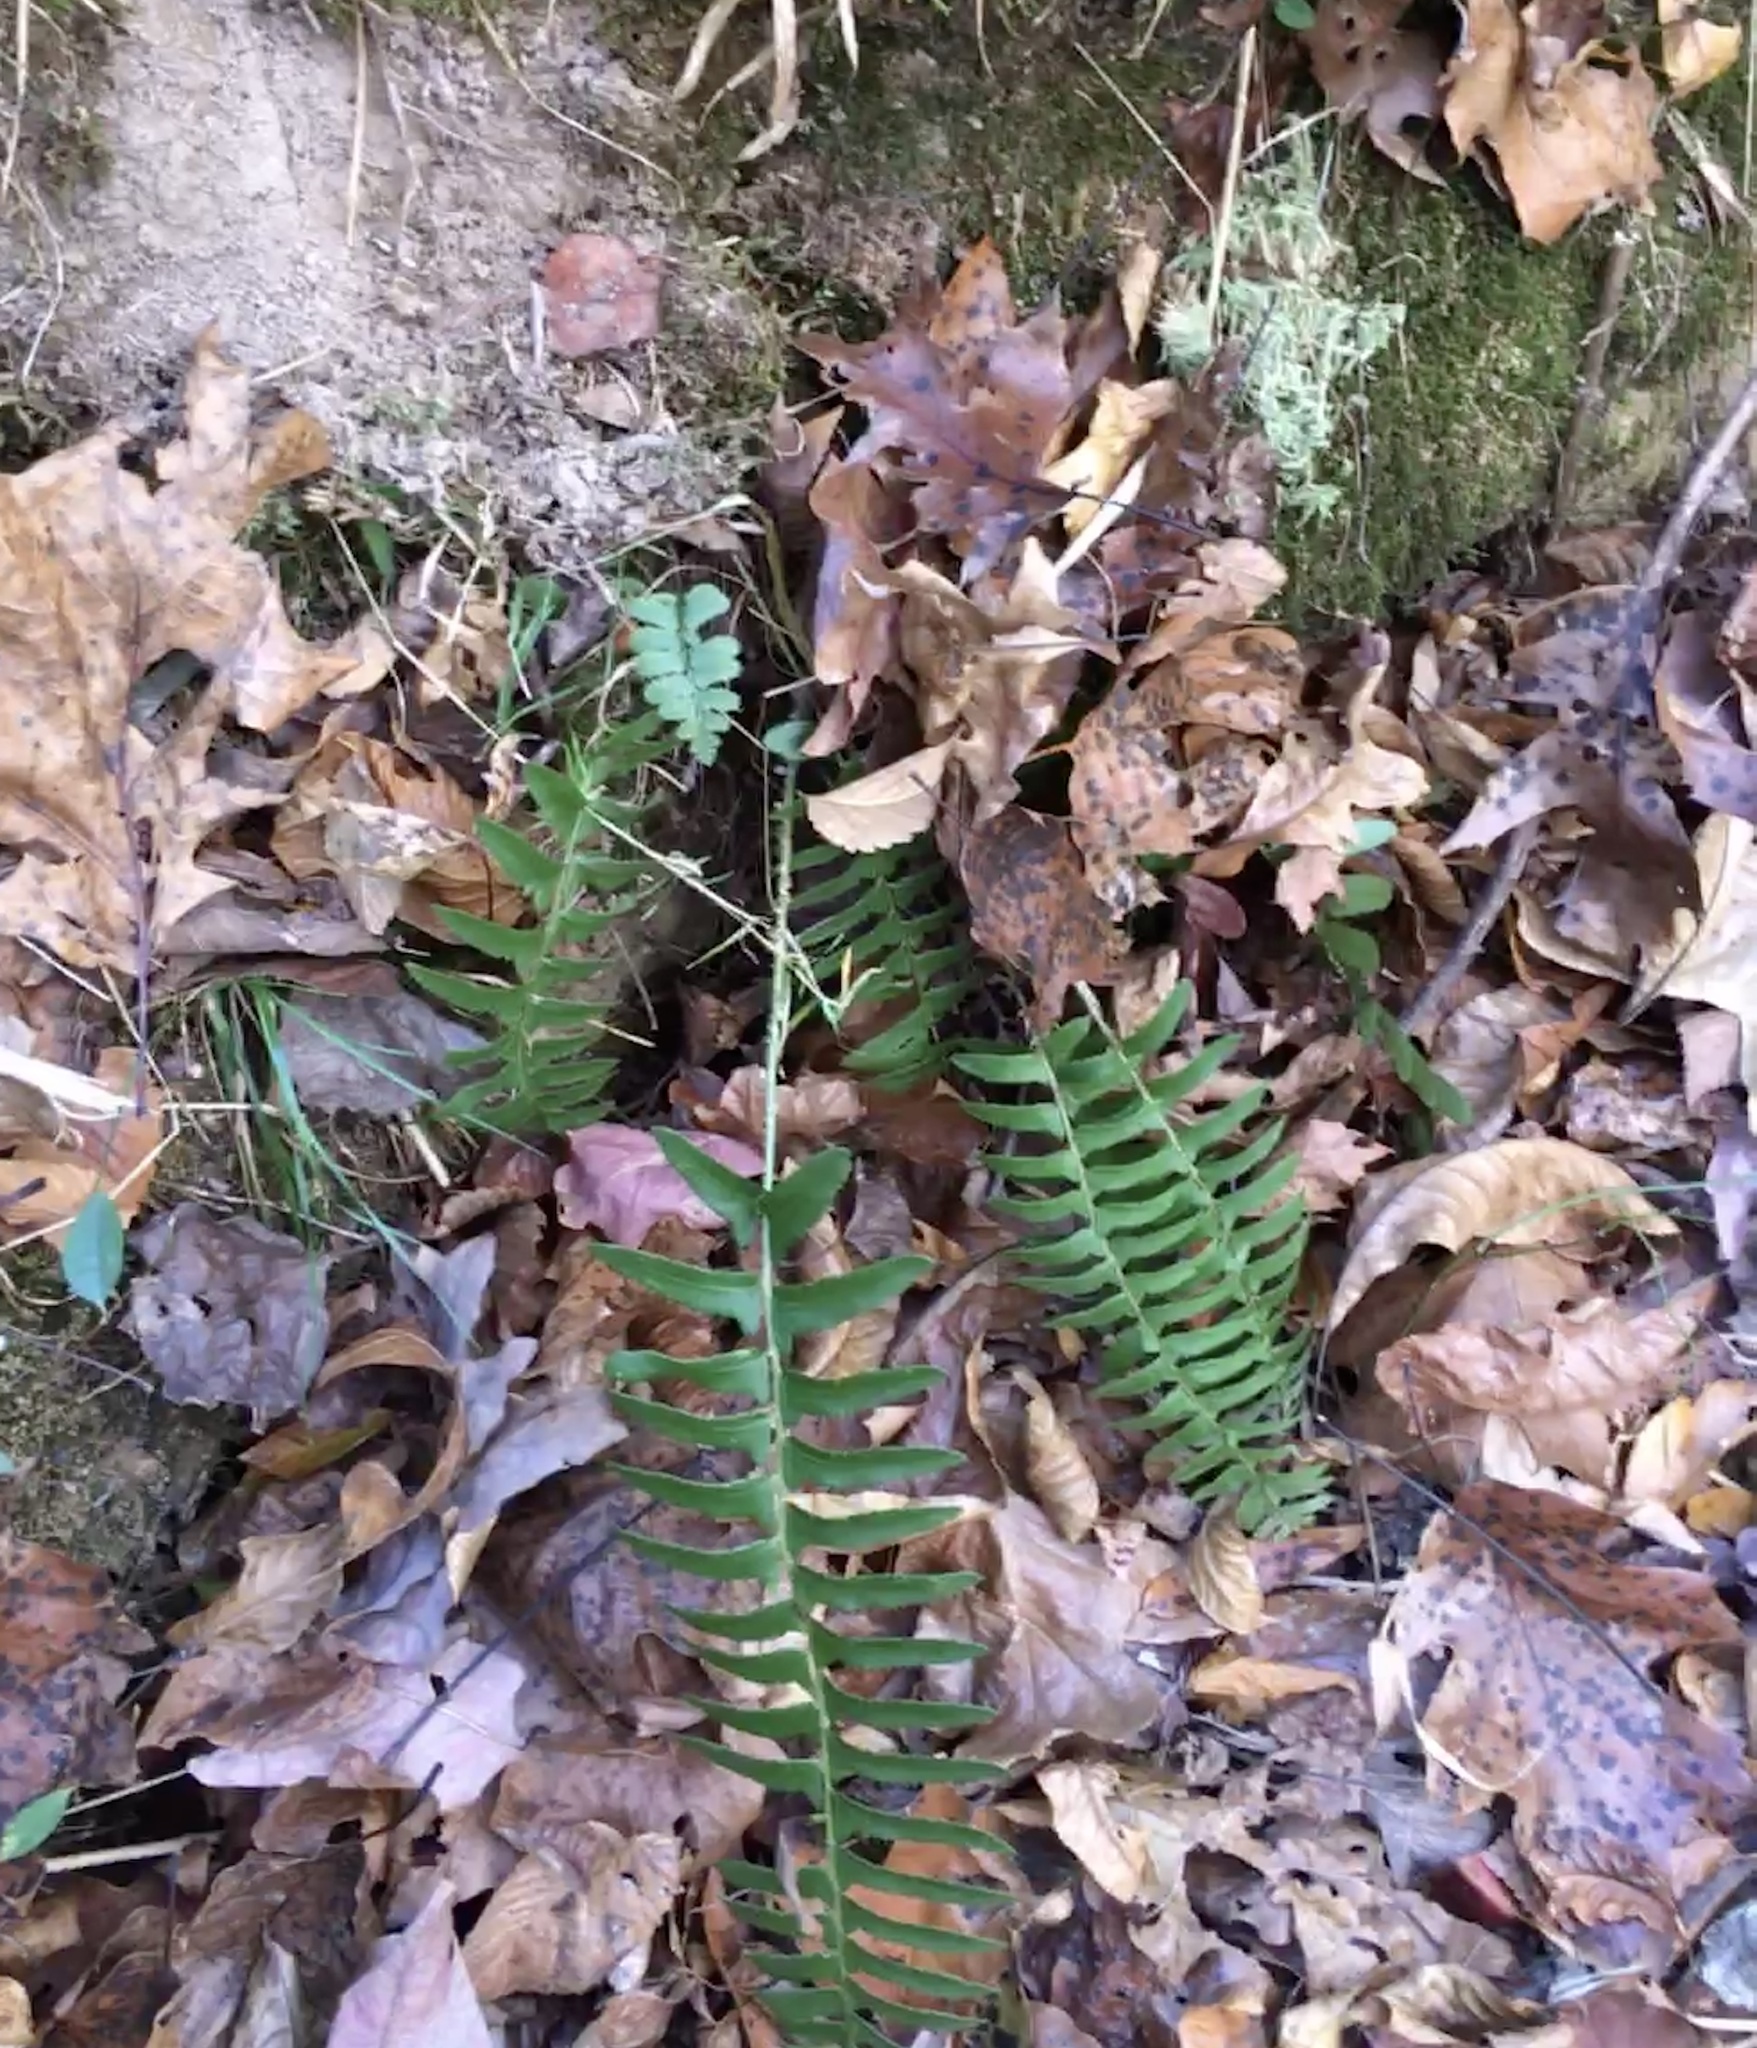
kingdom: Plantae
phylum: Tracheophyta
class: Polypodiopsida
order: Polypodiales
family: Dryopteridaceae
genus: Polystichum
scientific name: Polystichum acrostichoides
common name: Christmas fern
